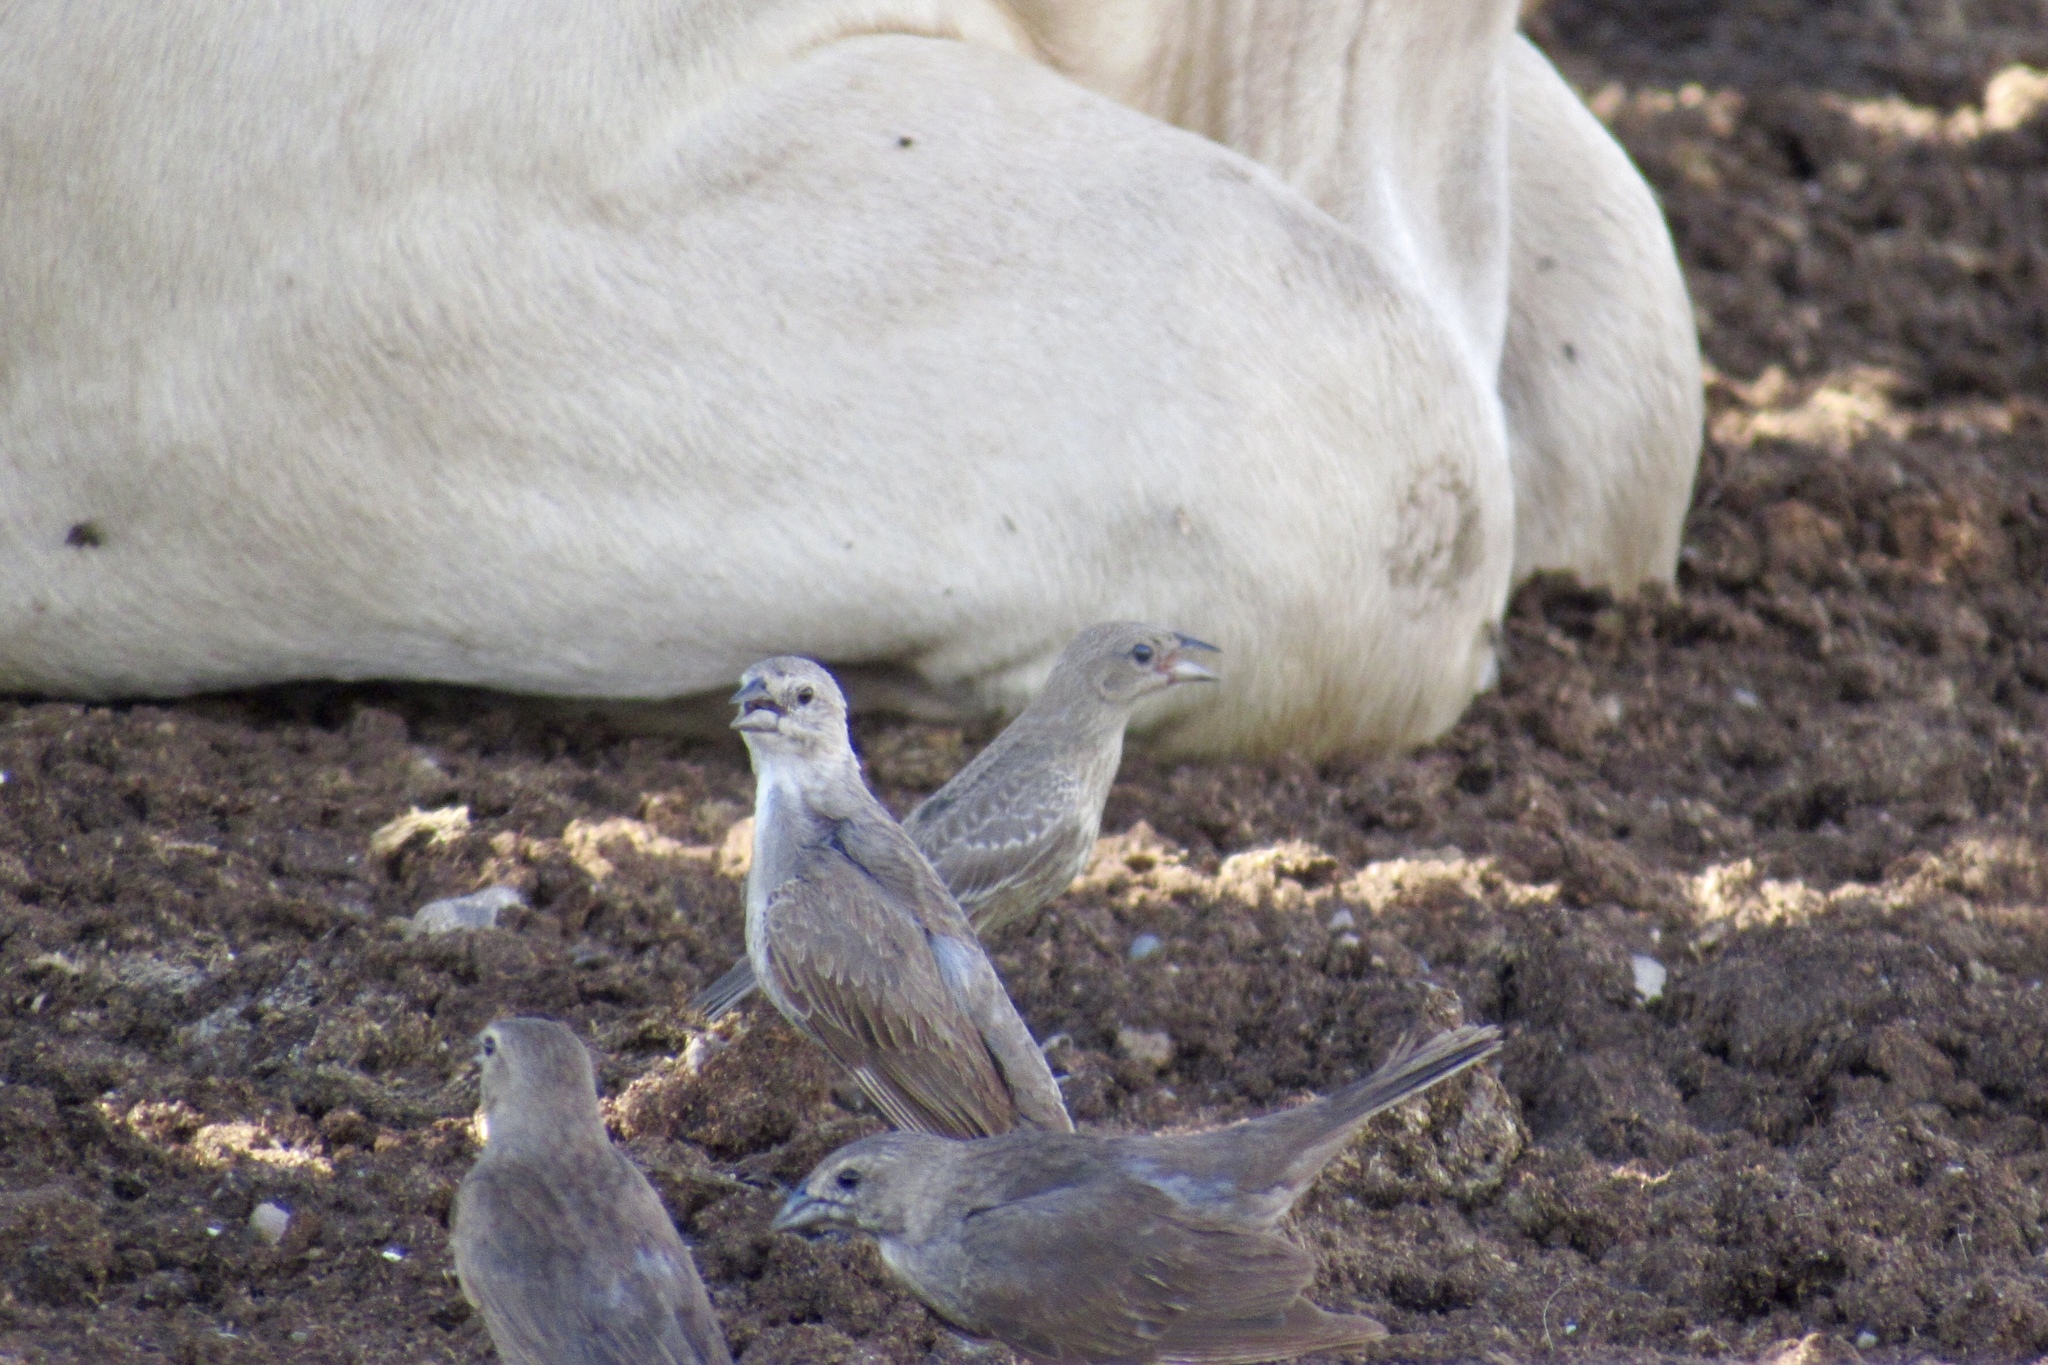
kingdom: Animalia
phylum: Chordata
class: Aves
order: Passeriformes
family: Icteridae
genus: Molothrus
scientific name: Molothrus ater
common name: Brown-headed cowbird
